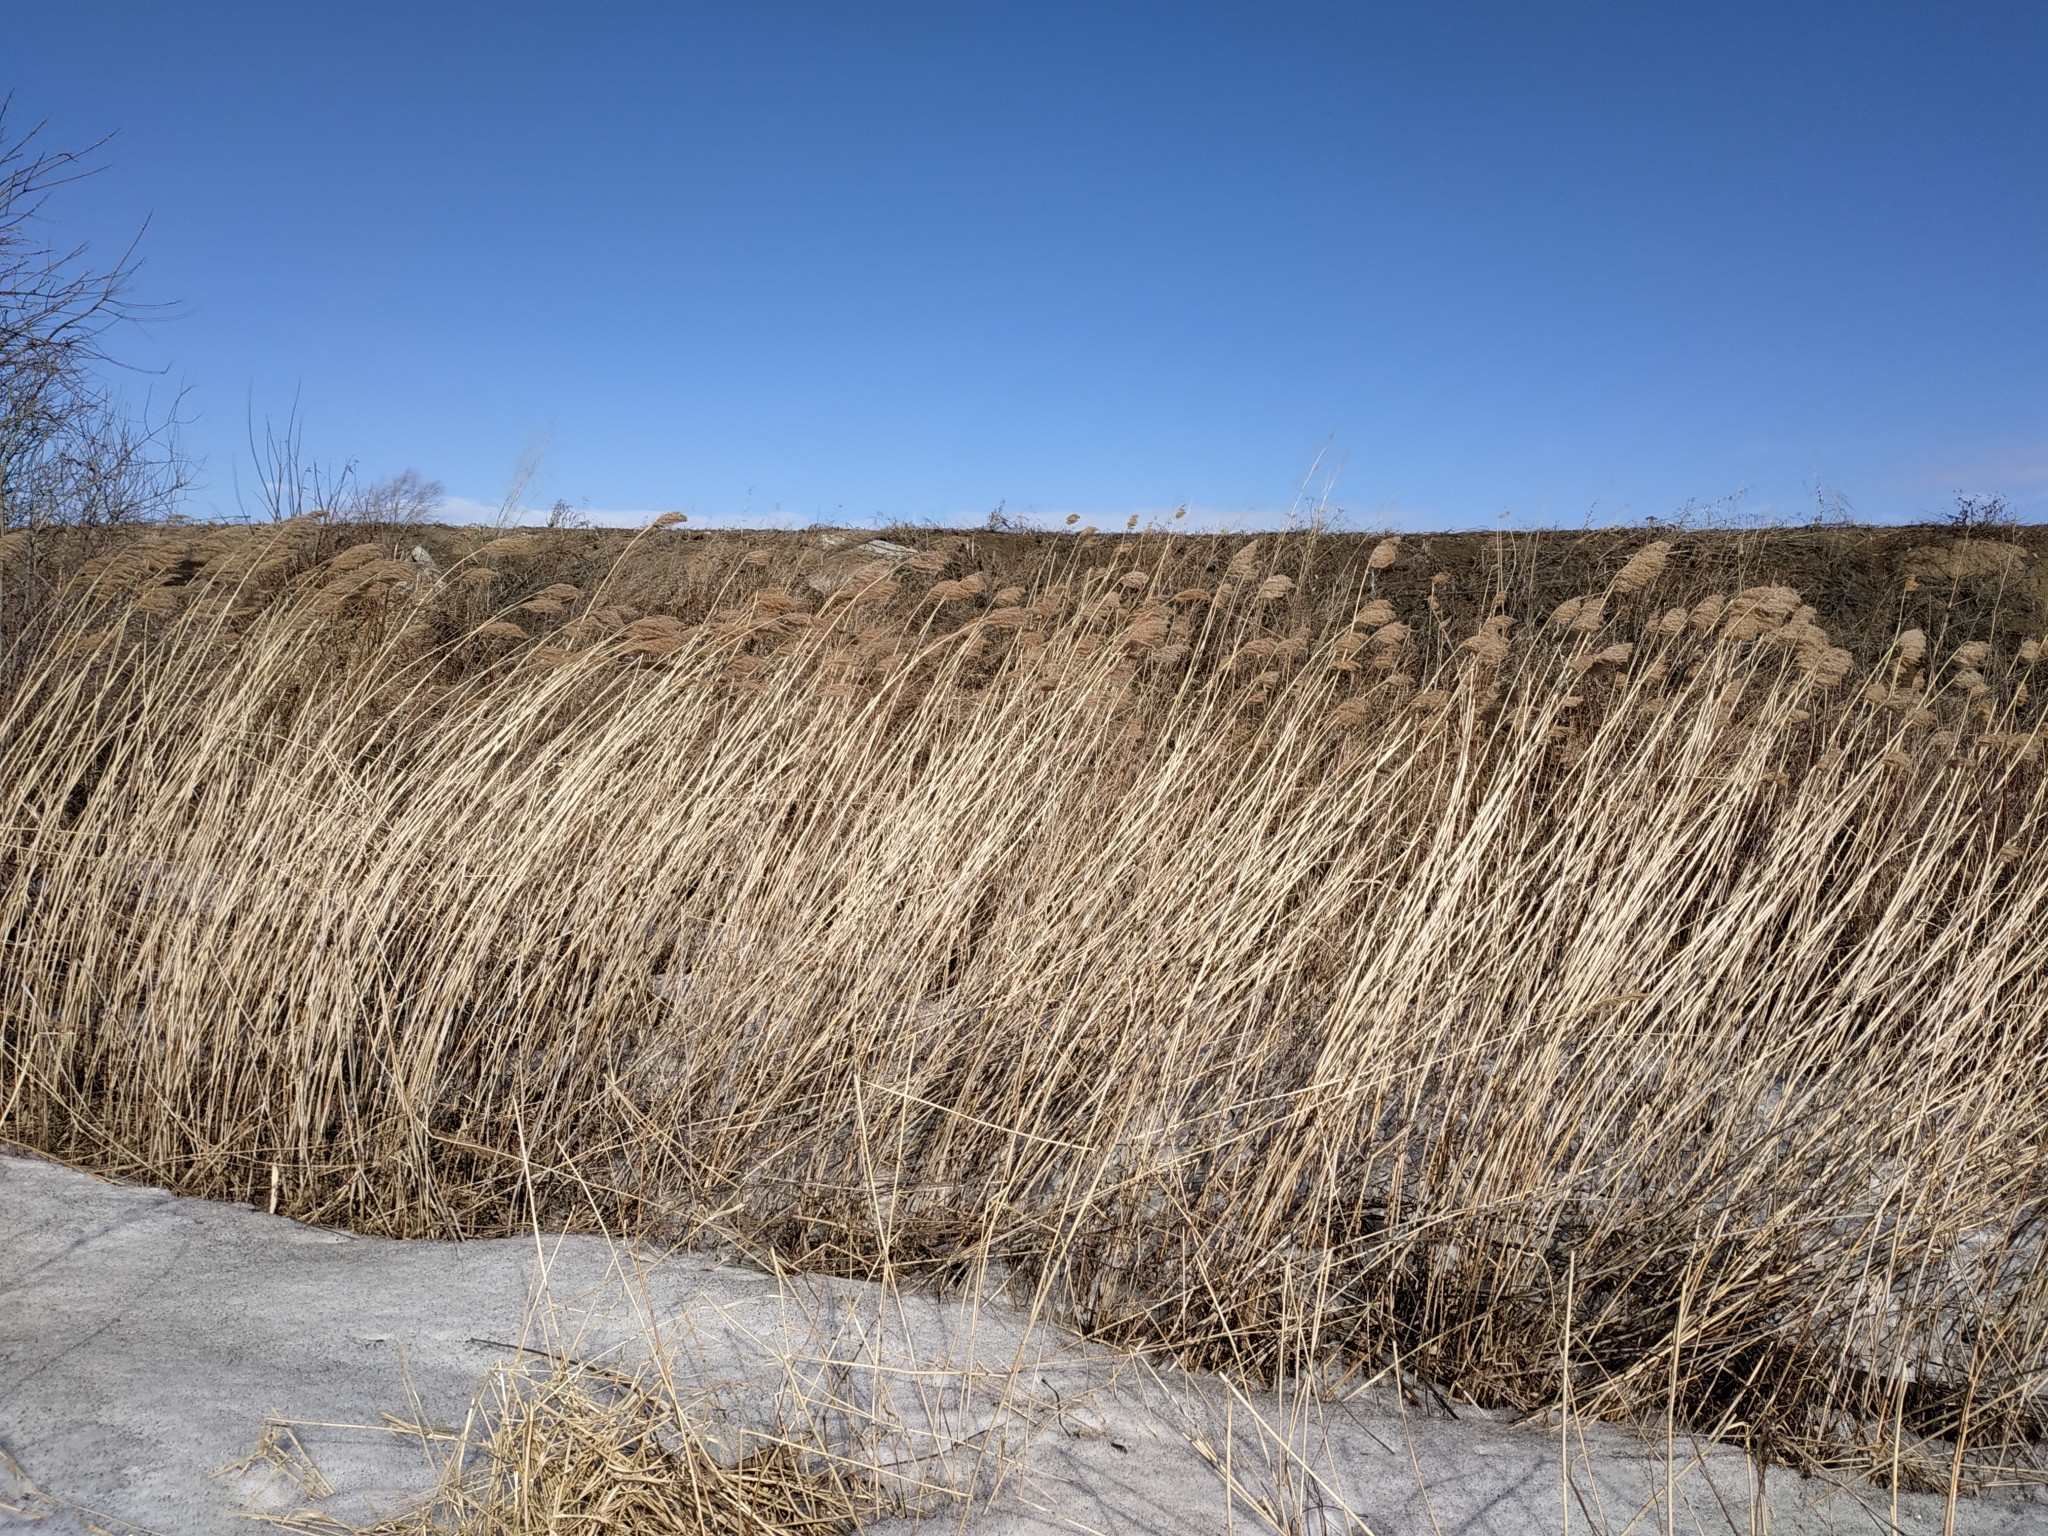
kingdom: Plantae
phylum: Tracheophyta
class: Liliopsida
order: Poales
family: Poaceae
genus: Phragmites
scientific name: Phragmites australis
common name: Common reed
